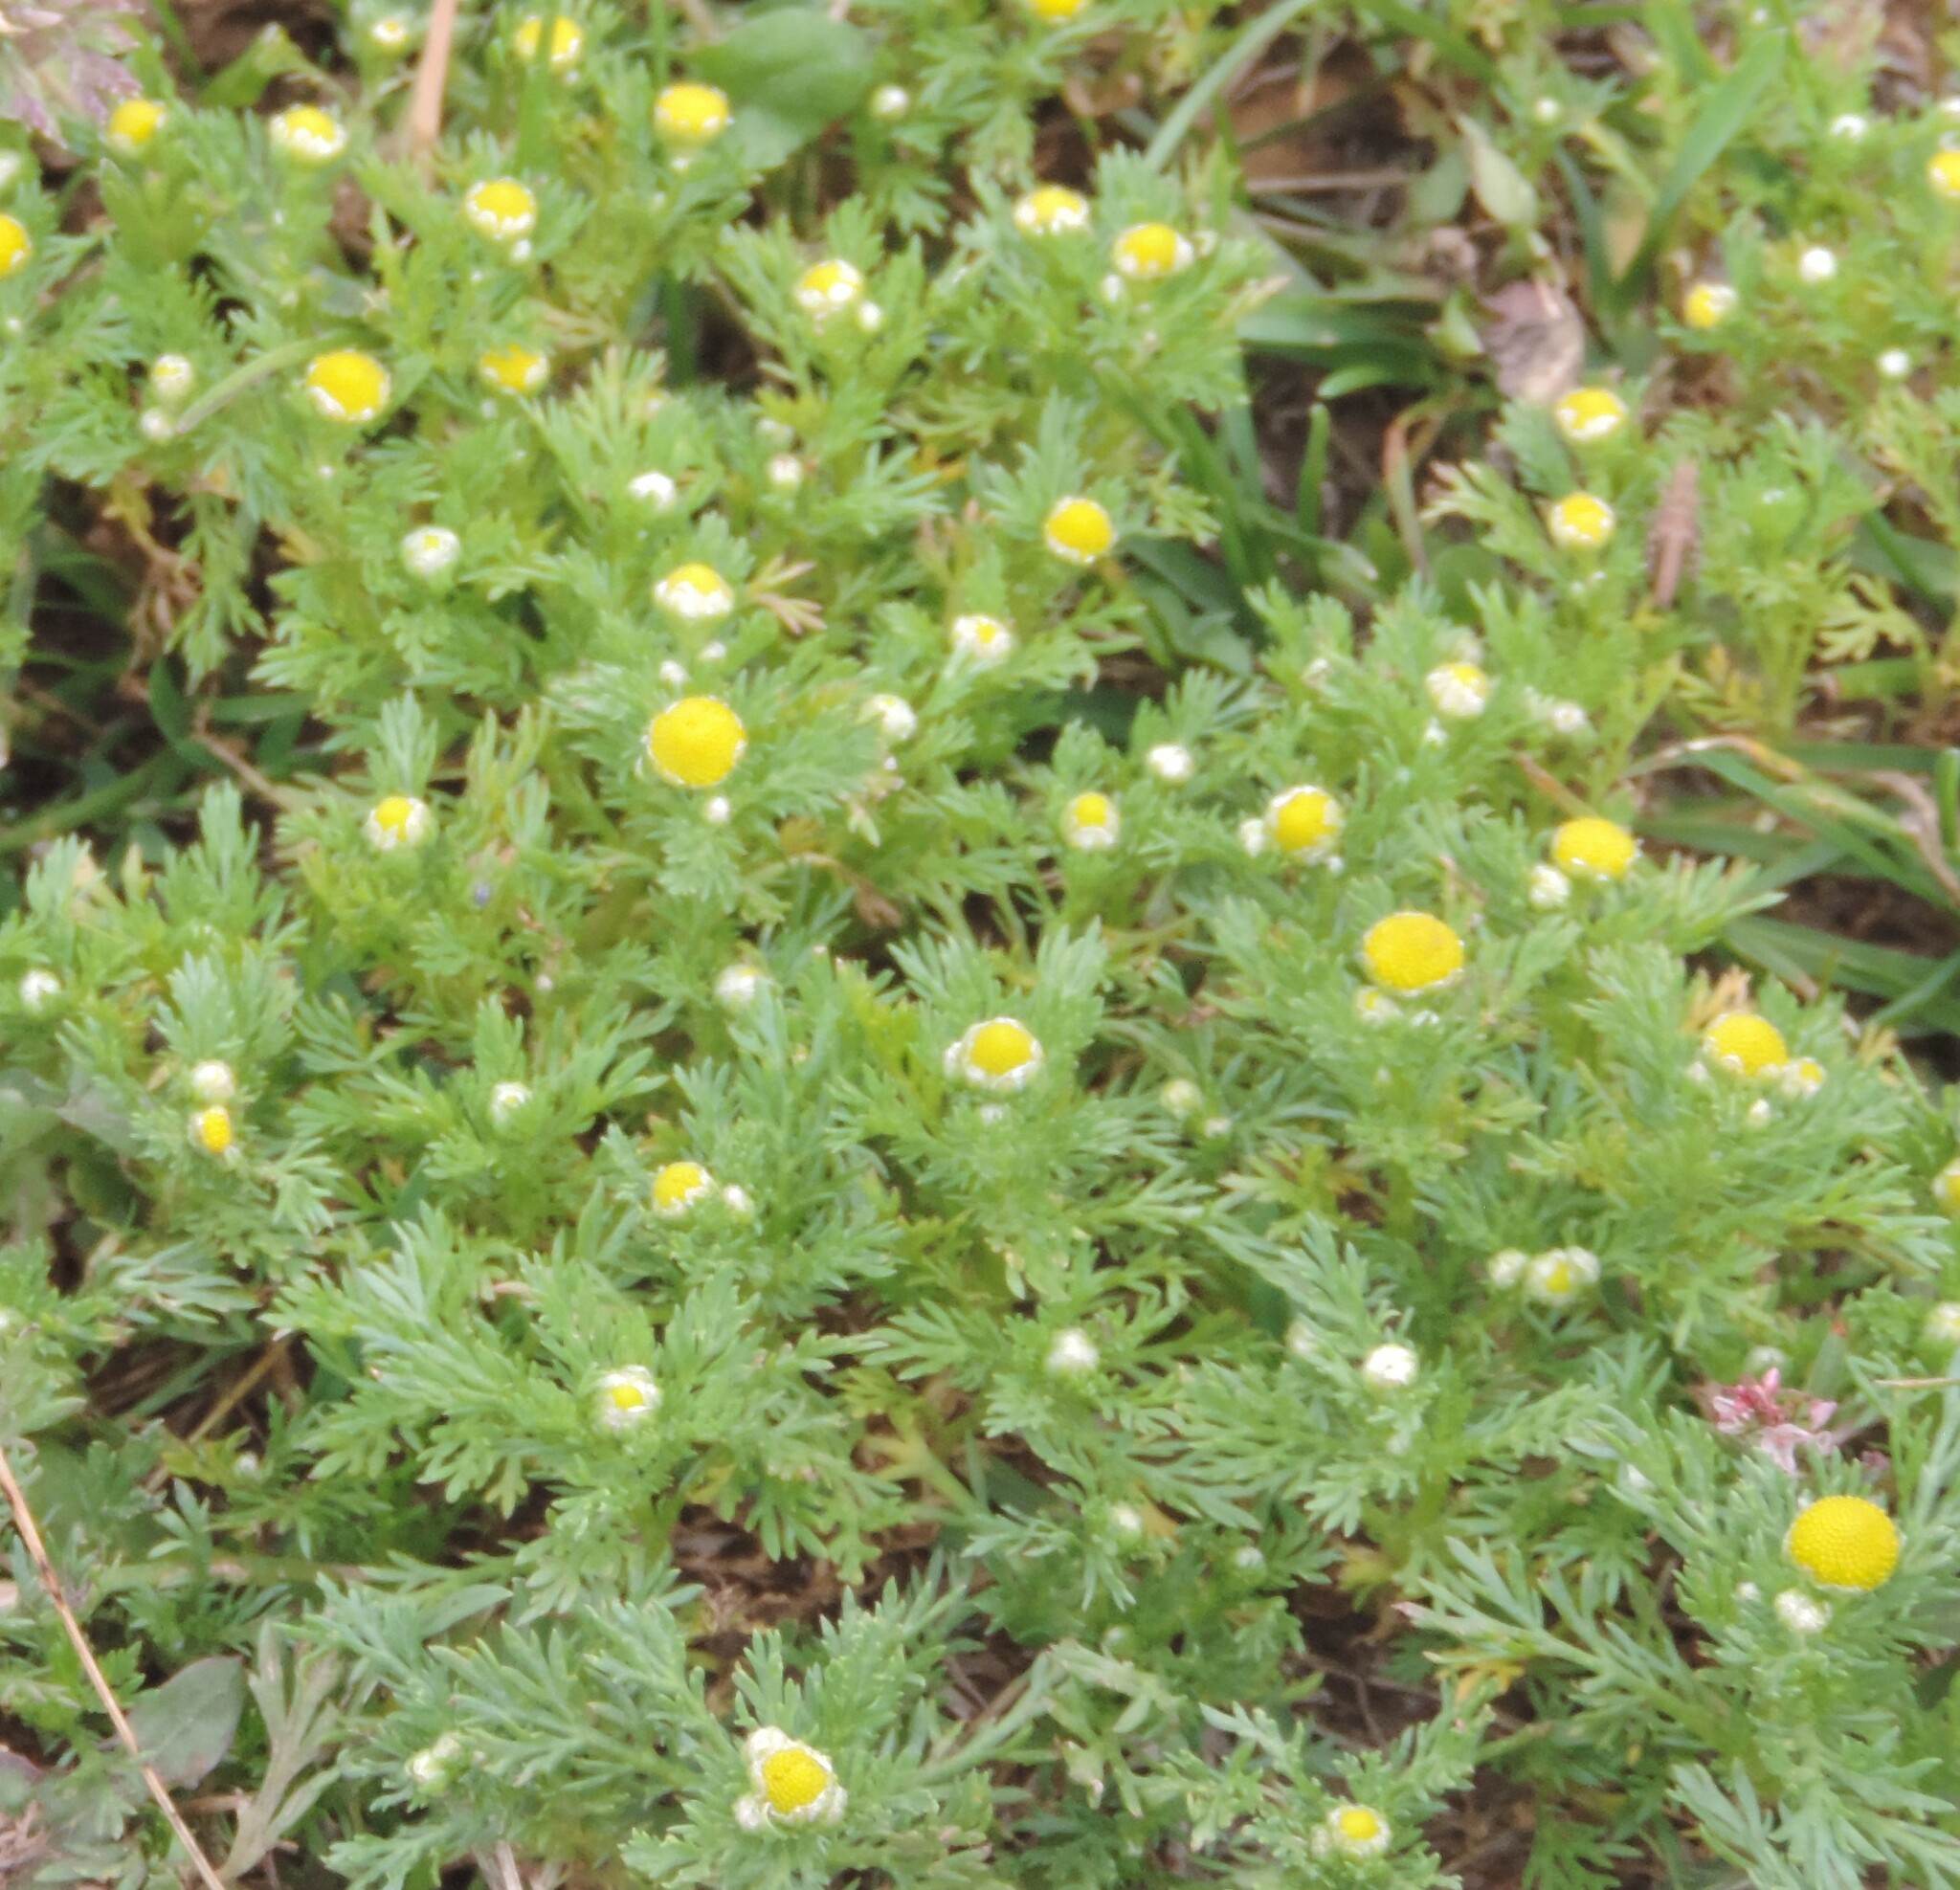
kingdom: Plantae
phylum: Tracheophyta
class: Magnoliopsida
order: Asterales
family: Asteraceae
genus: Matricaria
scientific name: Matricaria discoidea
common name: Disc mayweed
